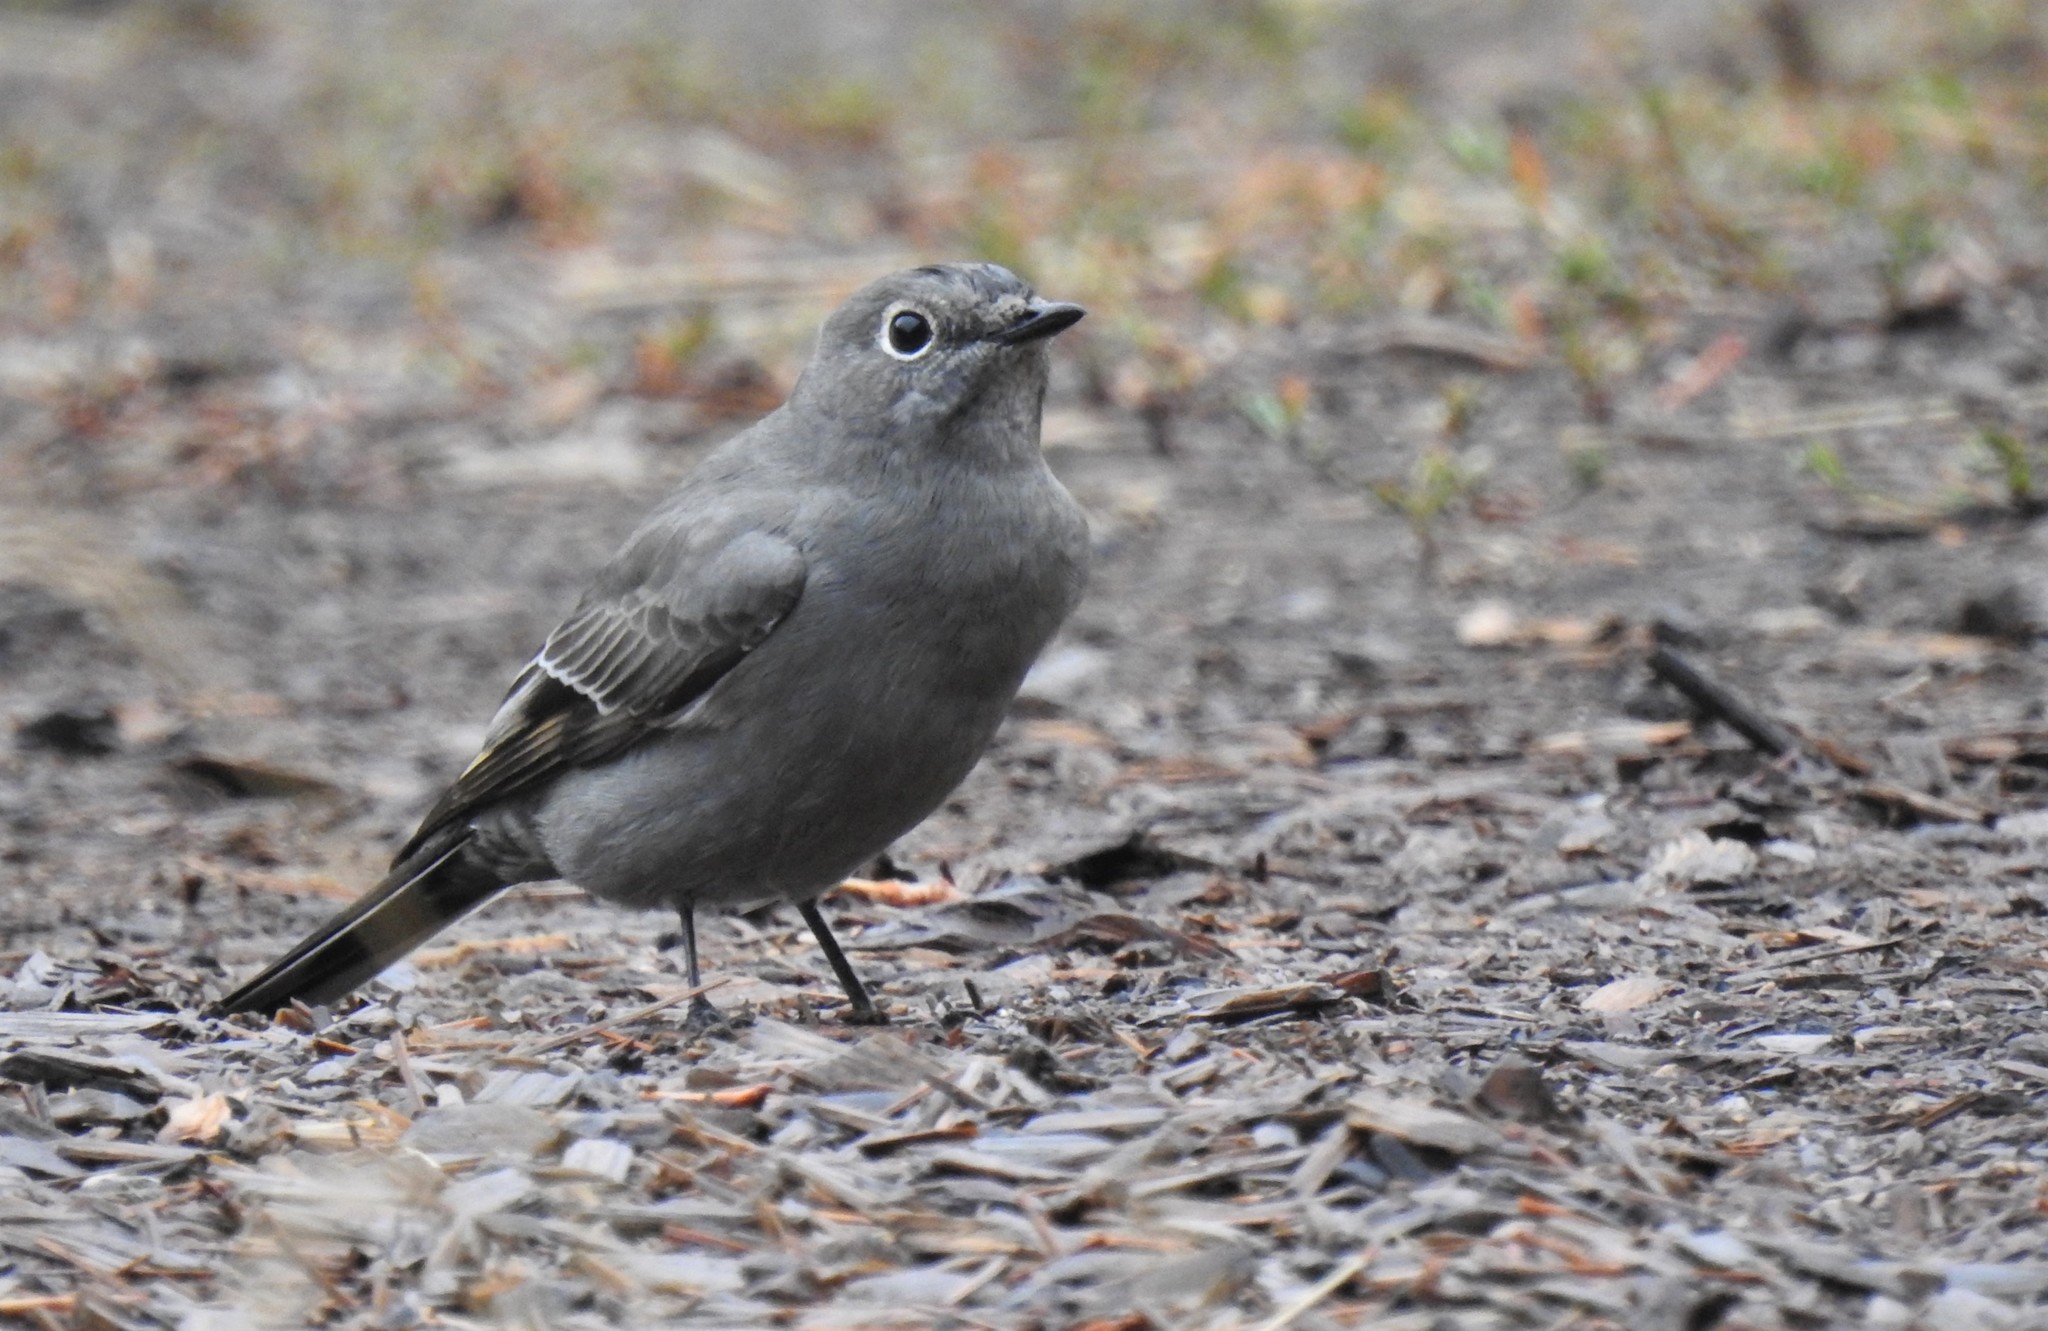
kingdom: Animalia
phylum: Chordata
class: Aves
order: Passeriformes
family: Turdidae
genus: Myadestes
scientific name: Myadestes townsendi
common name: Townsend's solitaire
